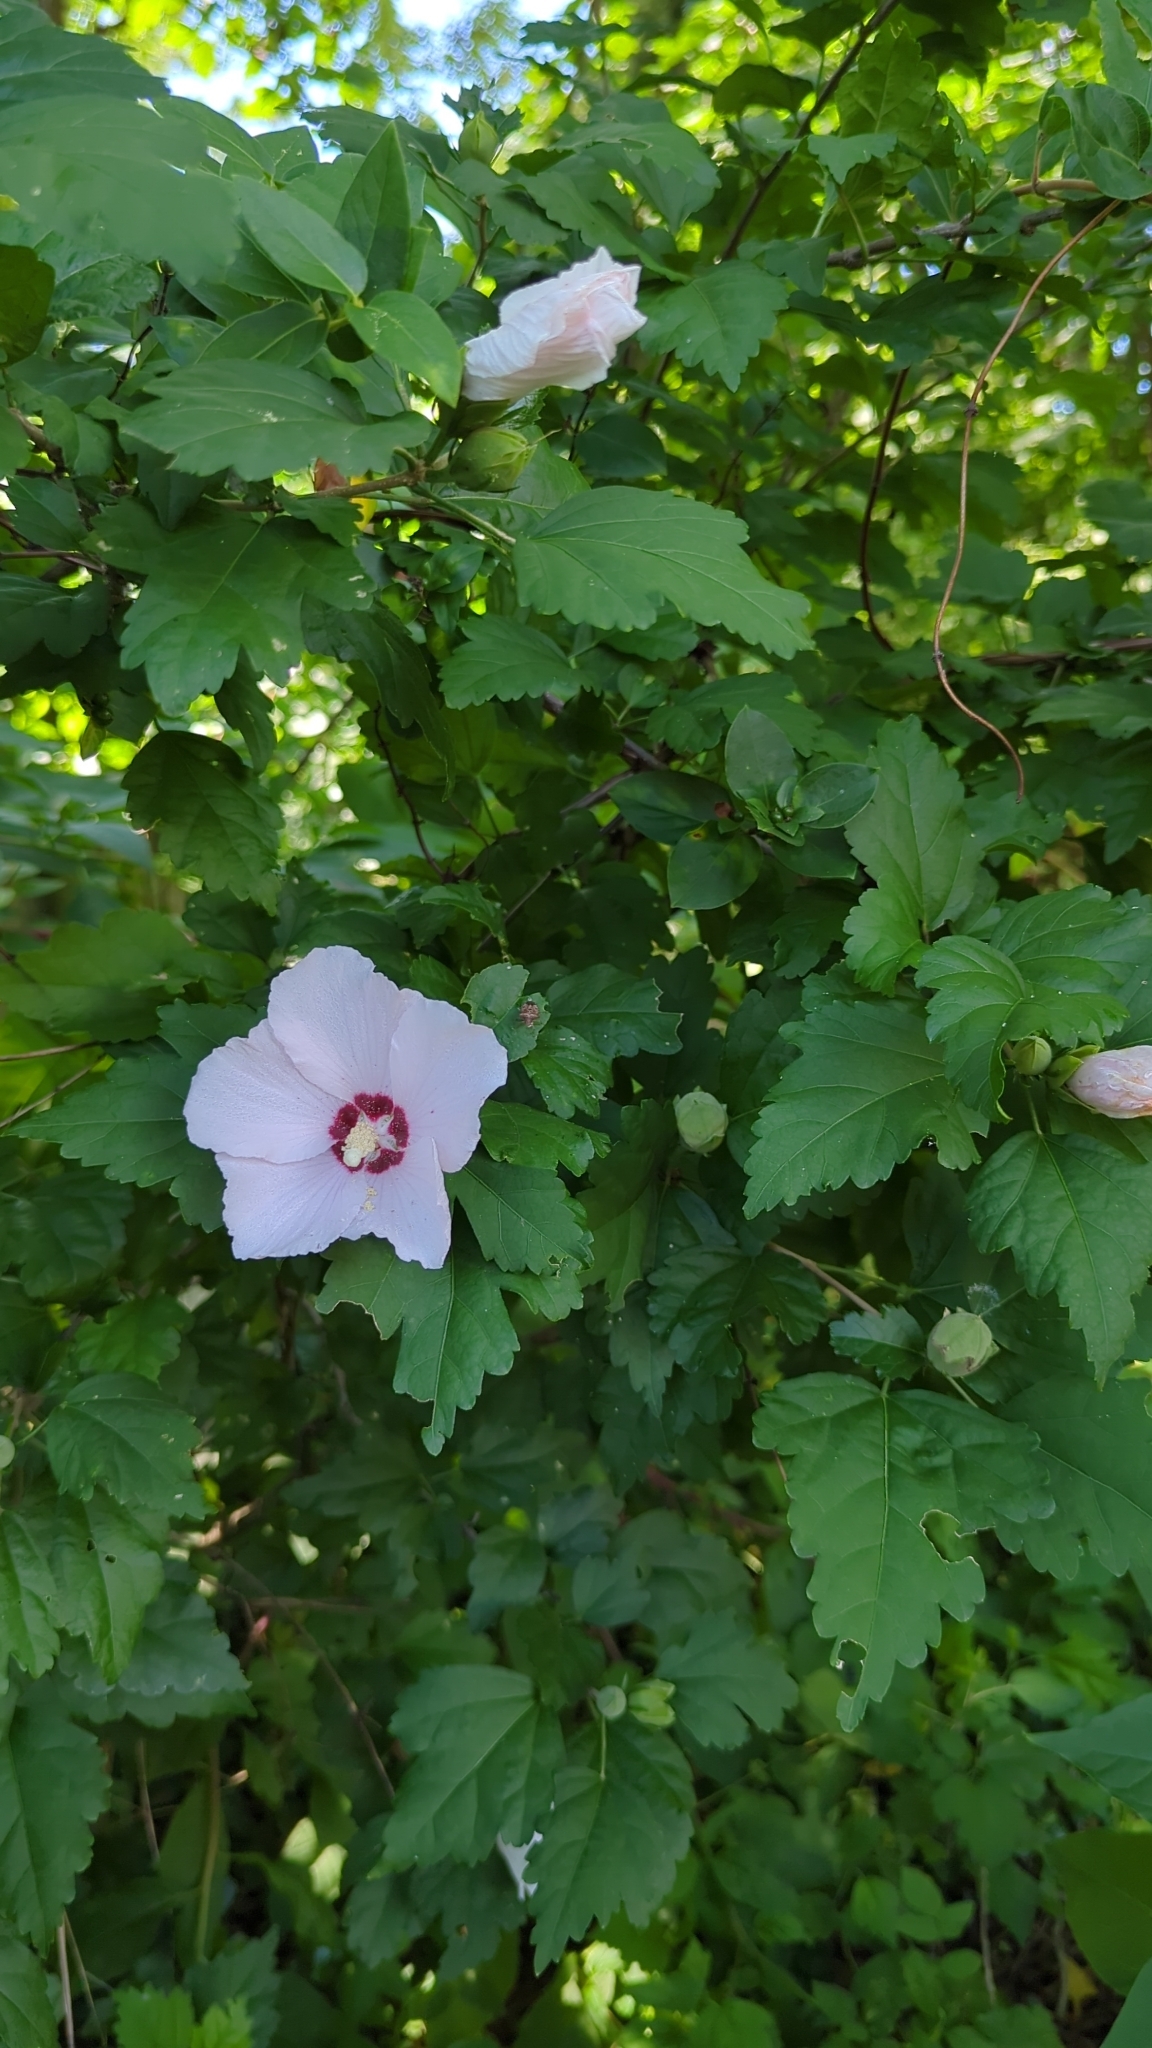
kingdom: Plantae
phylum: Tracheophyta
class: Magnoliopsida
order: Malvales
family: Malvaceae
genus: Hibiscus
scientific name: Hibiscus syriacus
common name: Syrian ketmia
